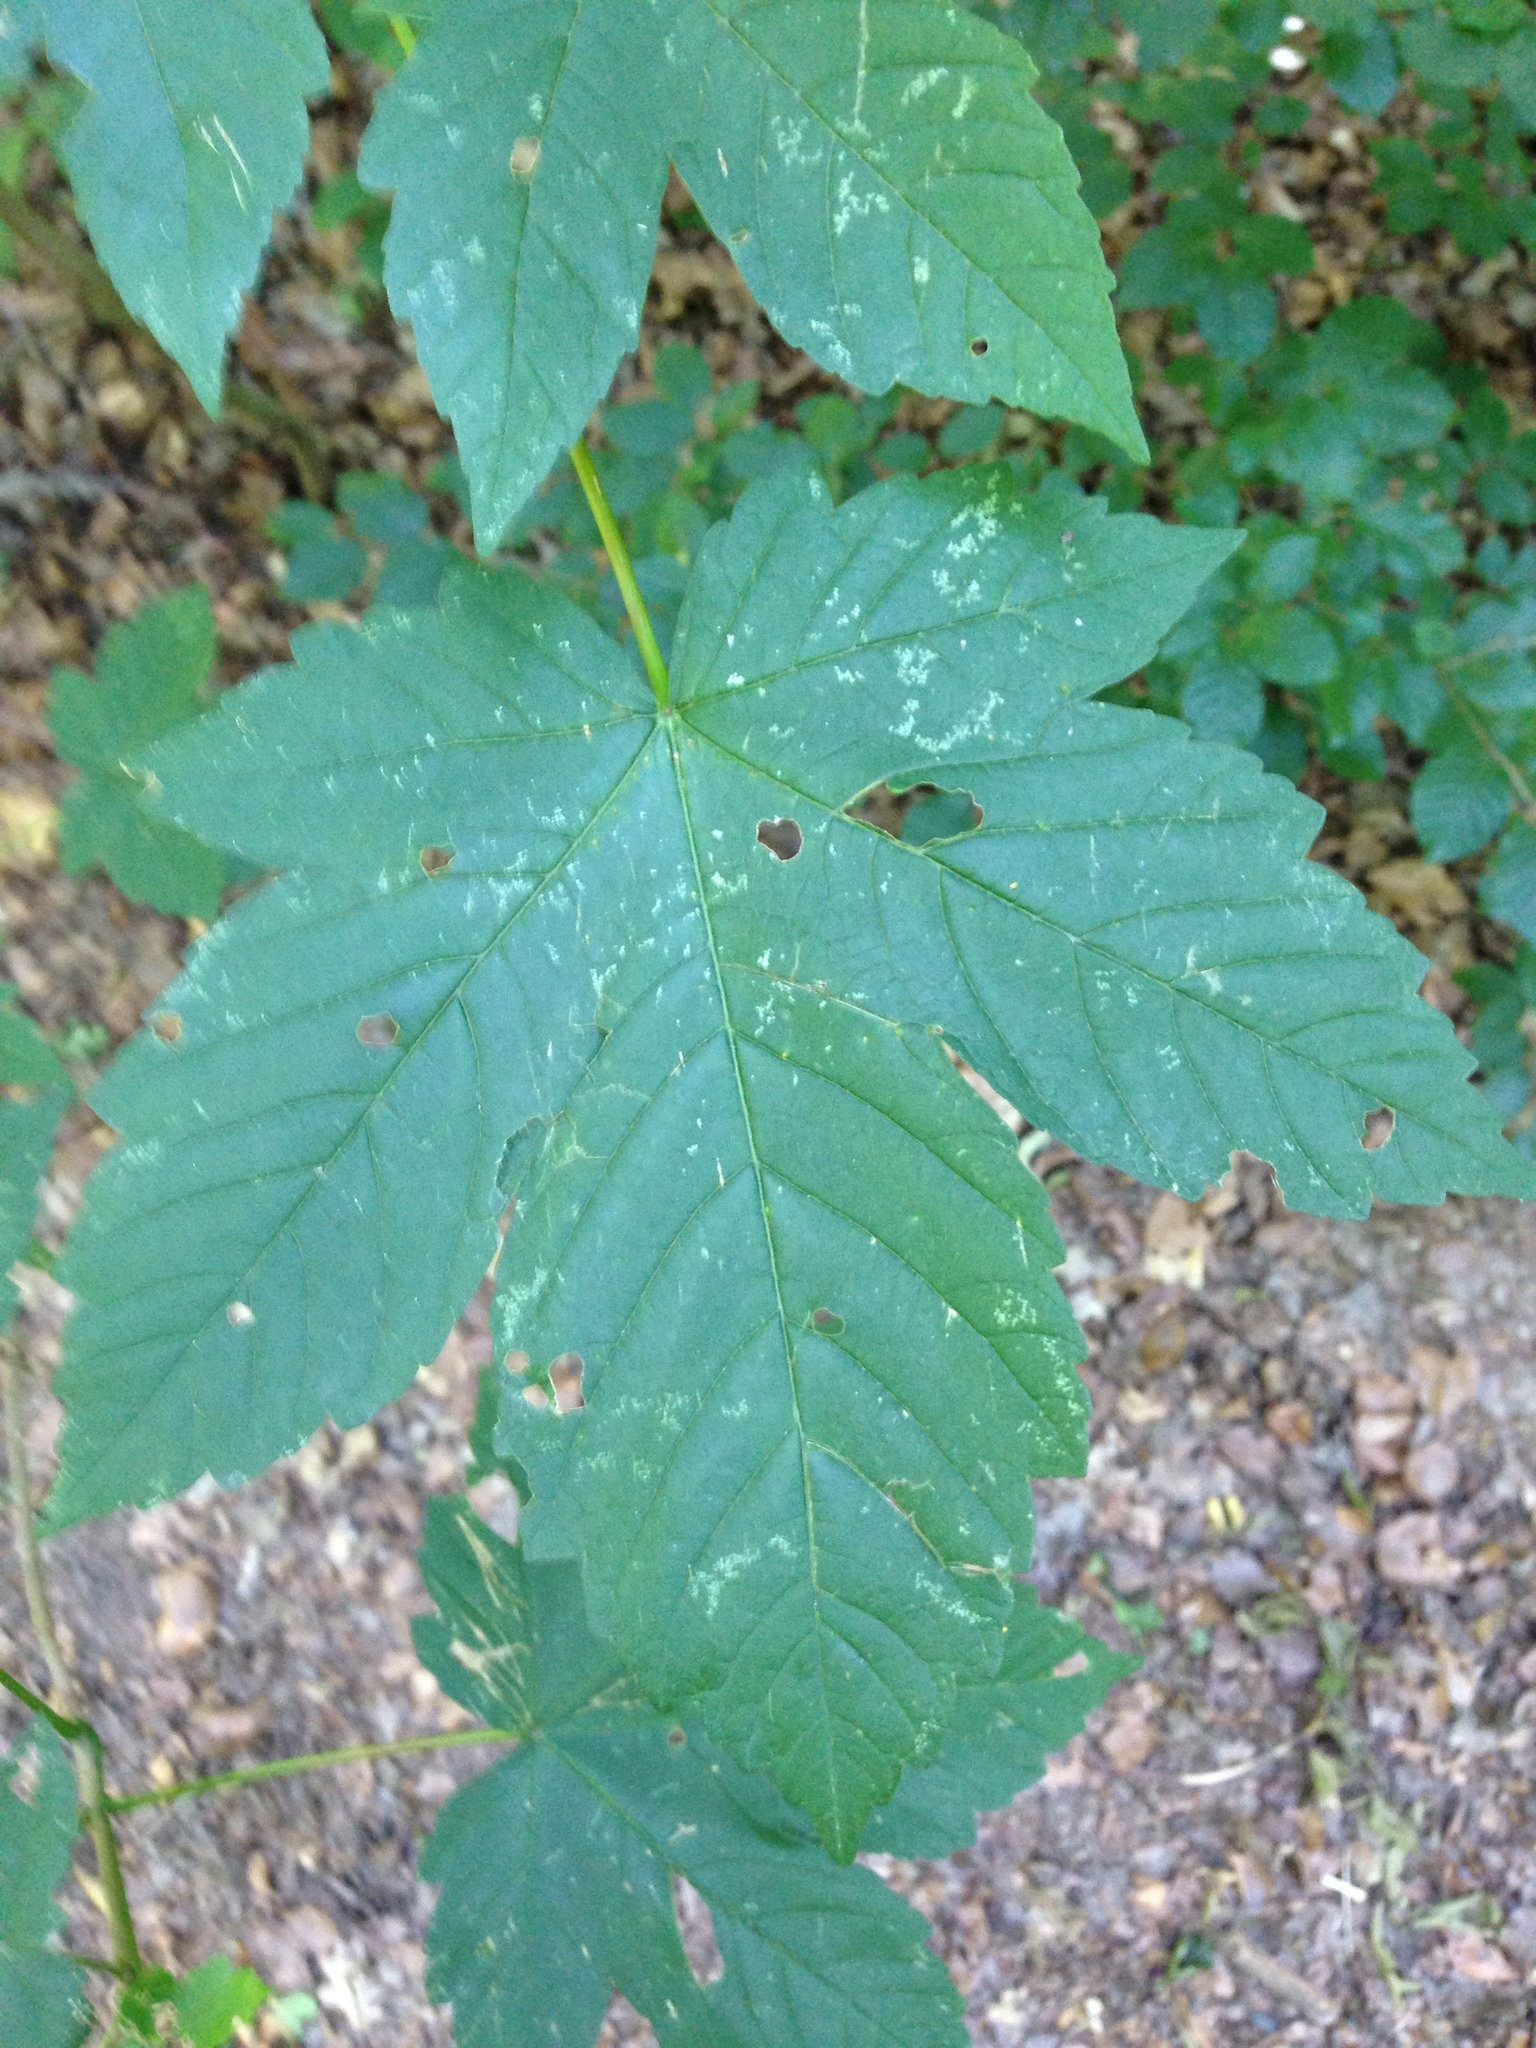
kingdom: Plantae
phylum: Tracheophyta
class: Magnoliopsida
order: Sapindales
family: Sapindaceae
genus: Acer
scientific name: Acer pseudoplatanus
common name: Sycamore
